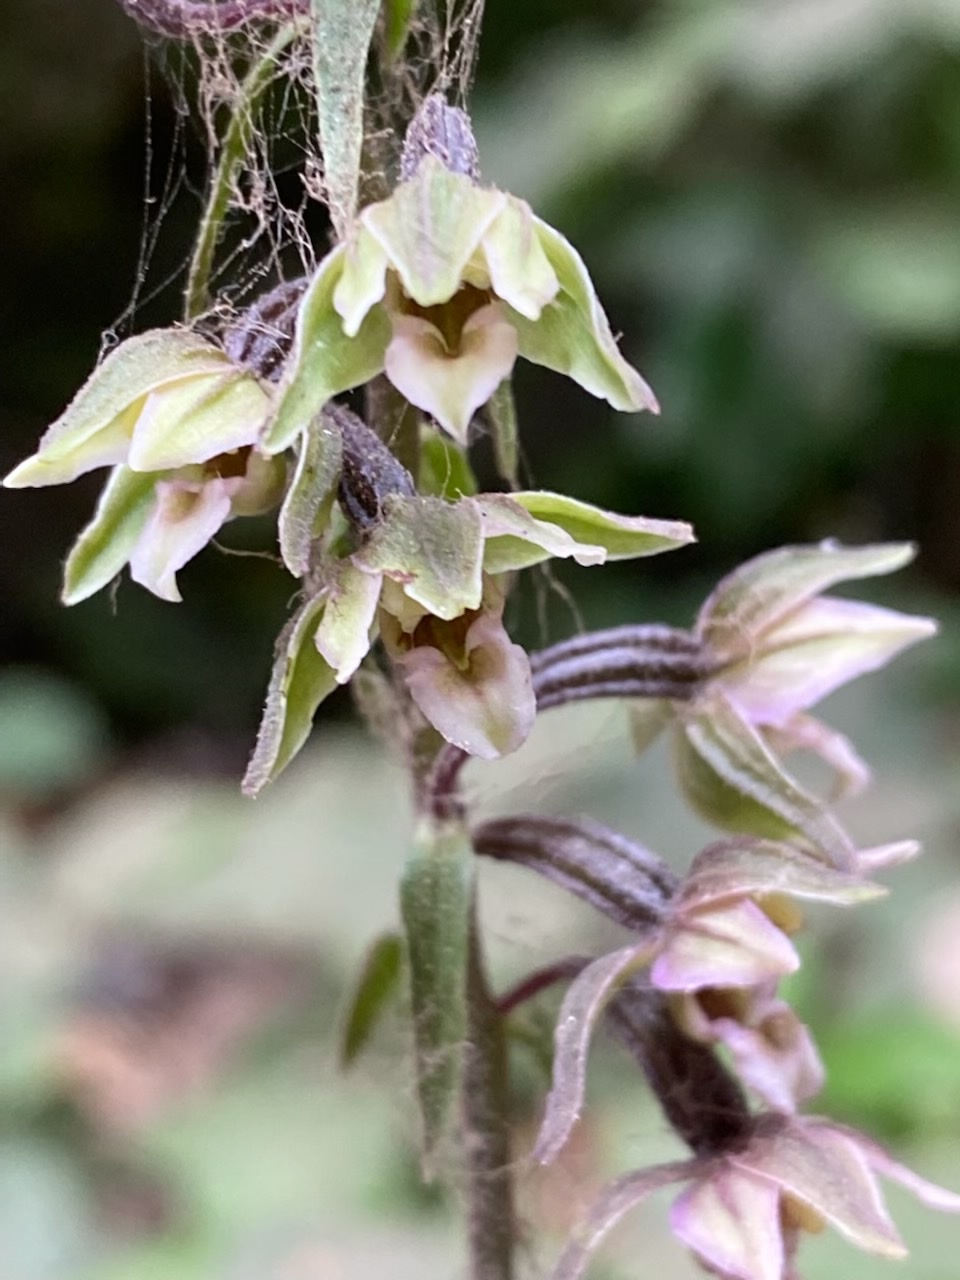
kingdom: Plantae
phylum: Tracheophyta
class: Liliopsida
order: Asparagales
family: Orchidaceae
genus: Epipactis
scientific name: Epipactis helleborine
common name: Broad-leaved helleborine
